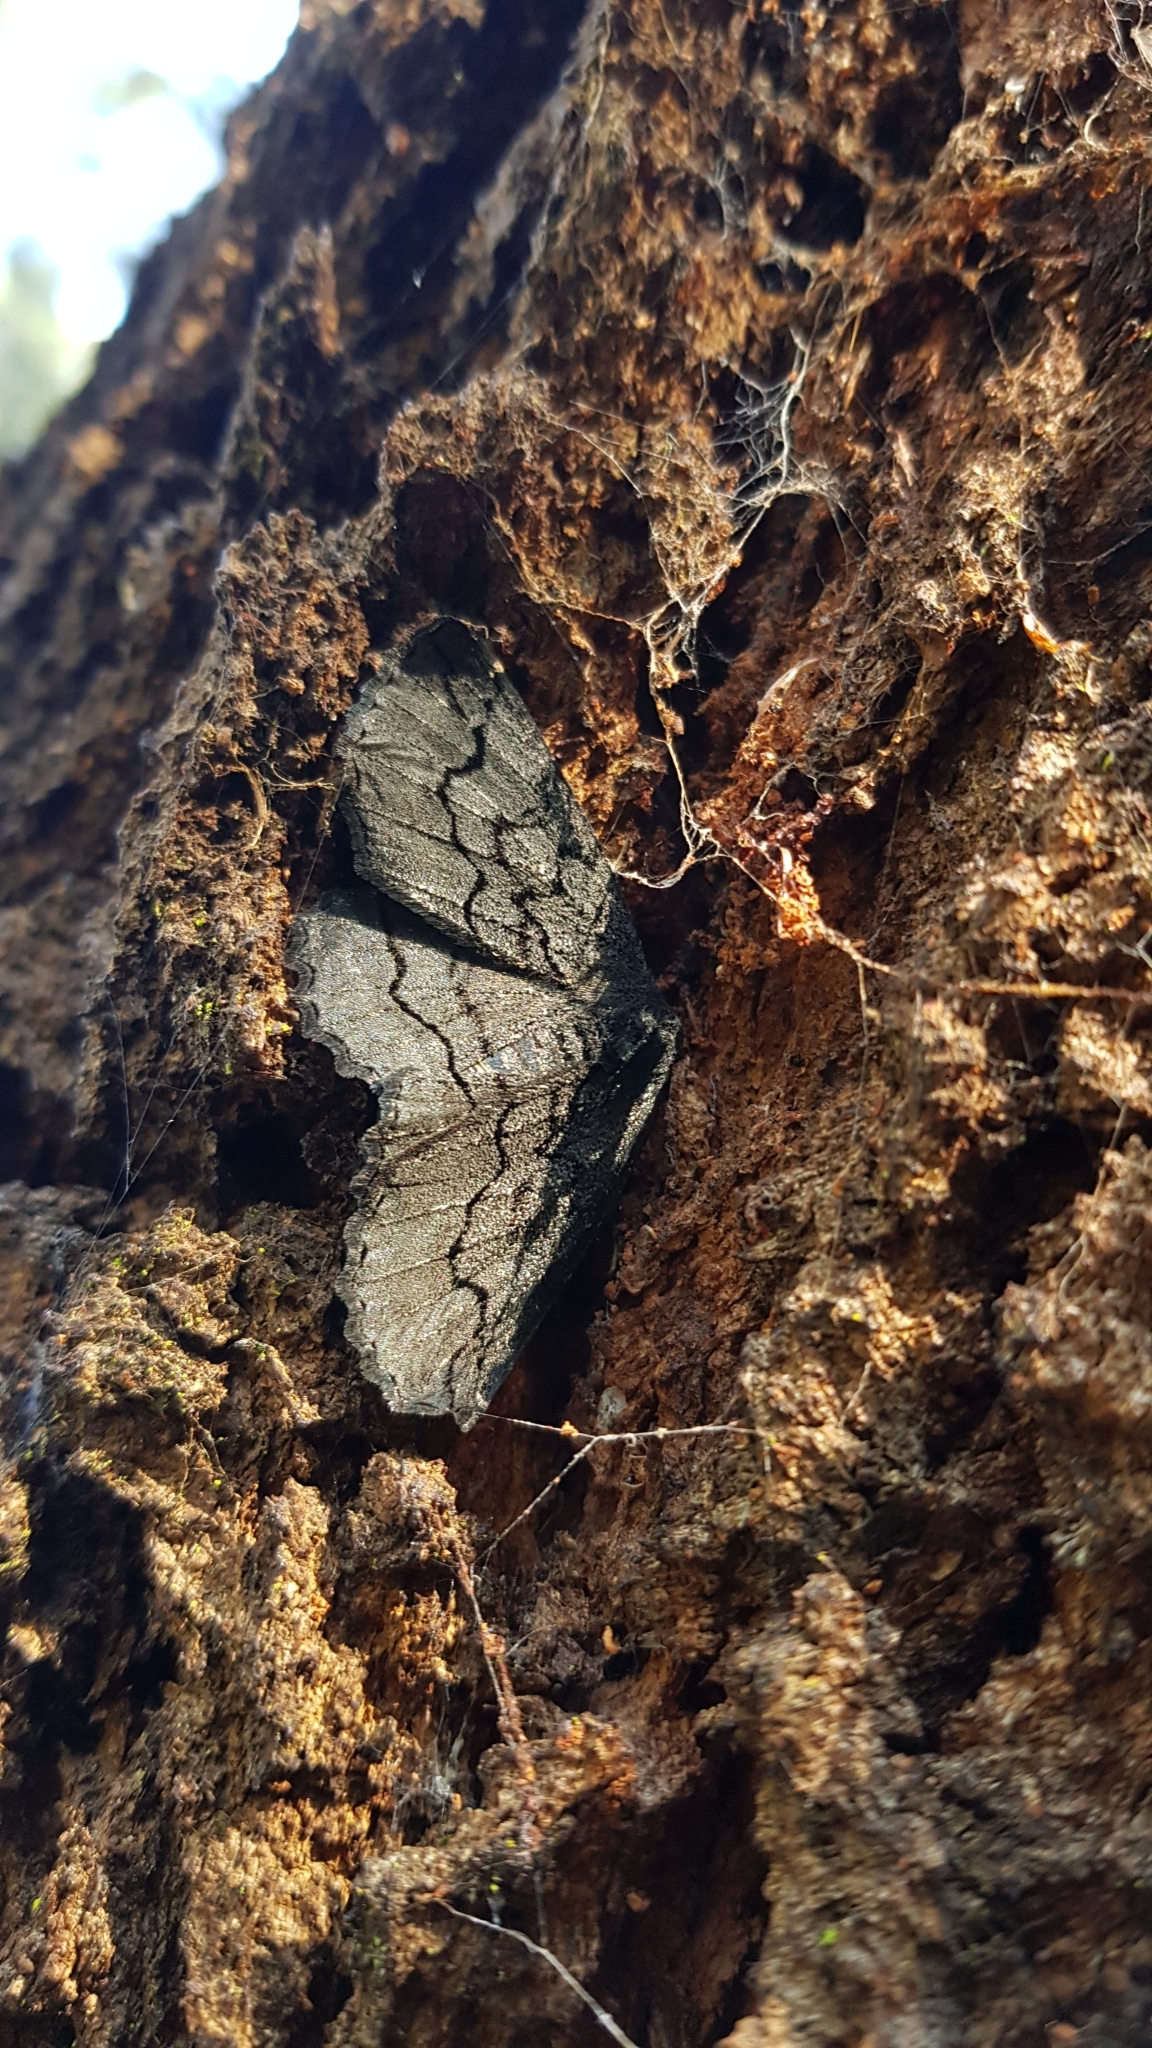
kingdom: Animalia
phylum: Arthropoda
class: Insecta
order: Lepidoptera
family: Geometridae
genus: Melanodes
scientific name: Melanodes anthracitaria
